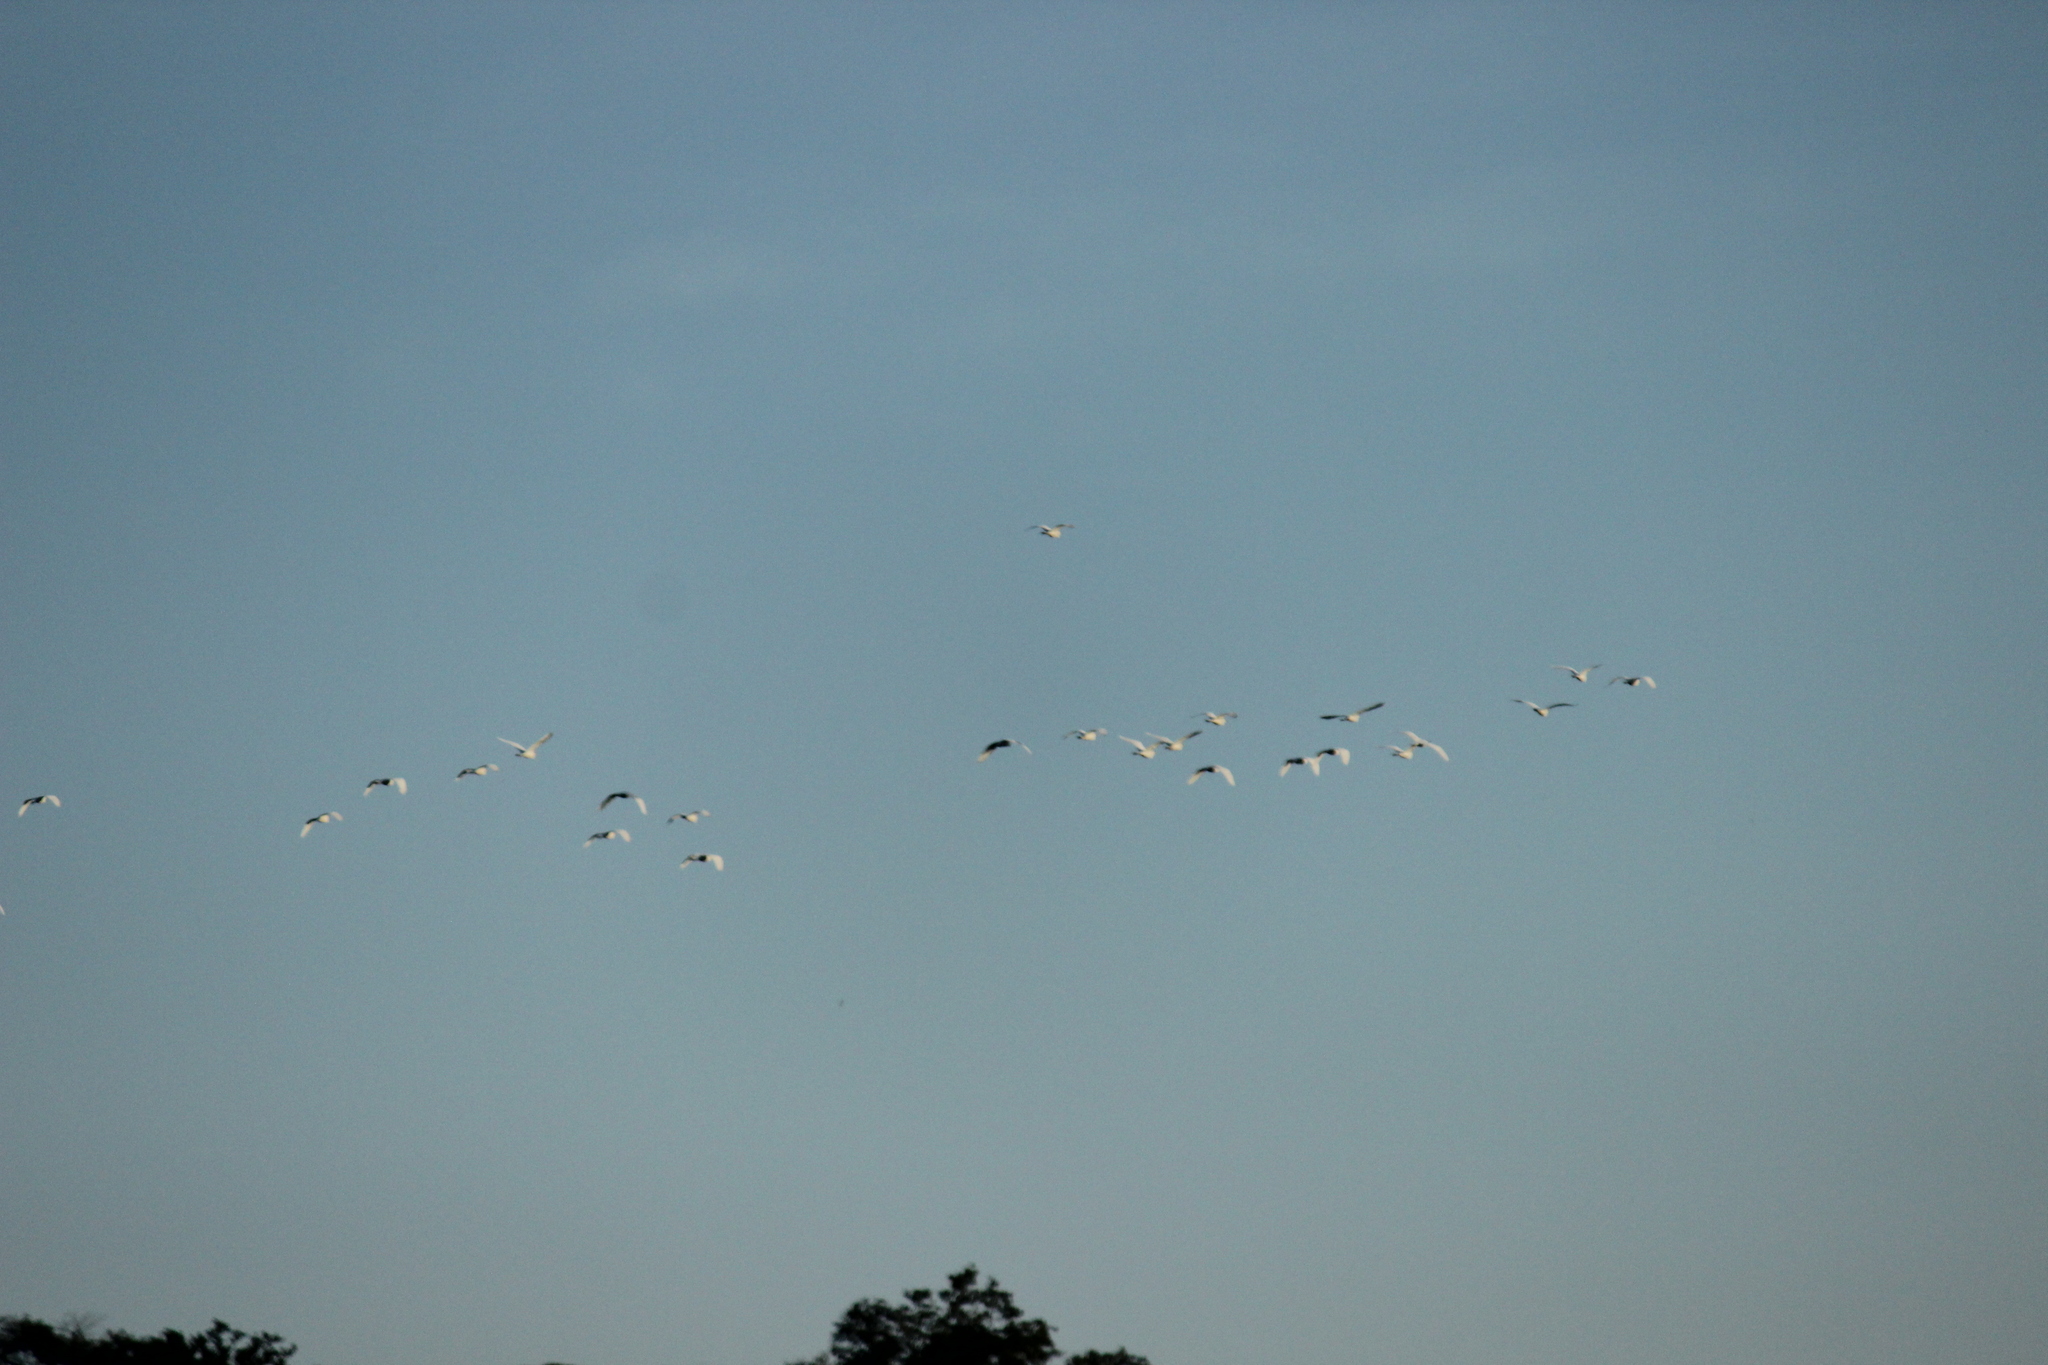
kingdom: Animalia
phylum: Chordata
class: Aves
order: Pelecaniformes
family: Ardeidae
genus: Bubulcus
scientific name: Bubulcus ibis
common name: Cattle egret
